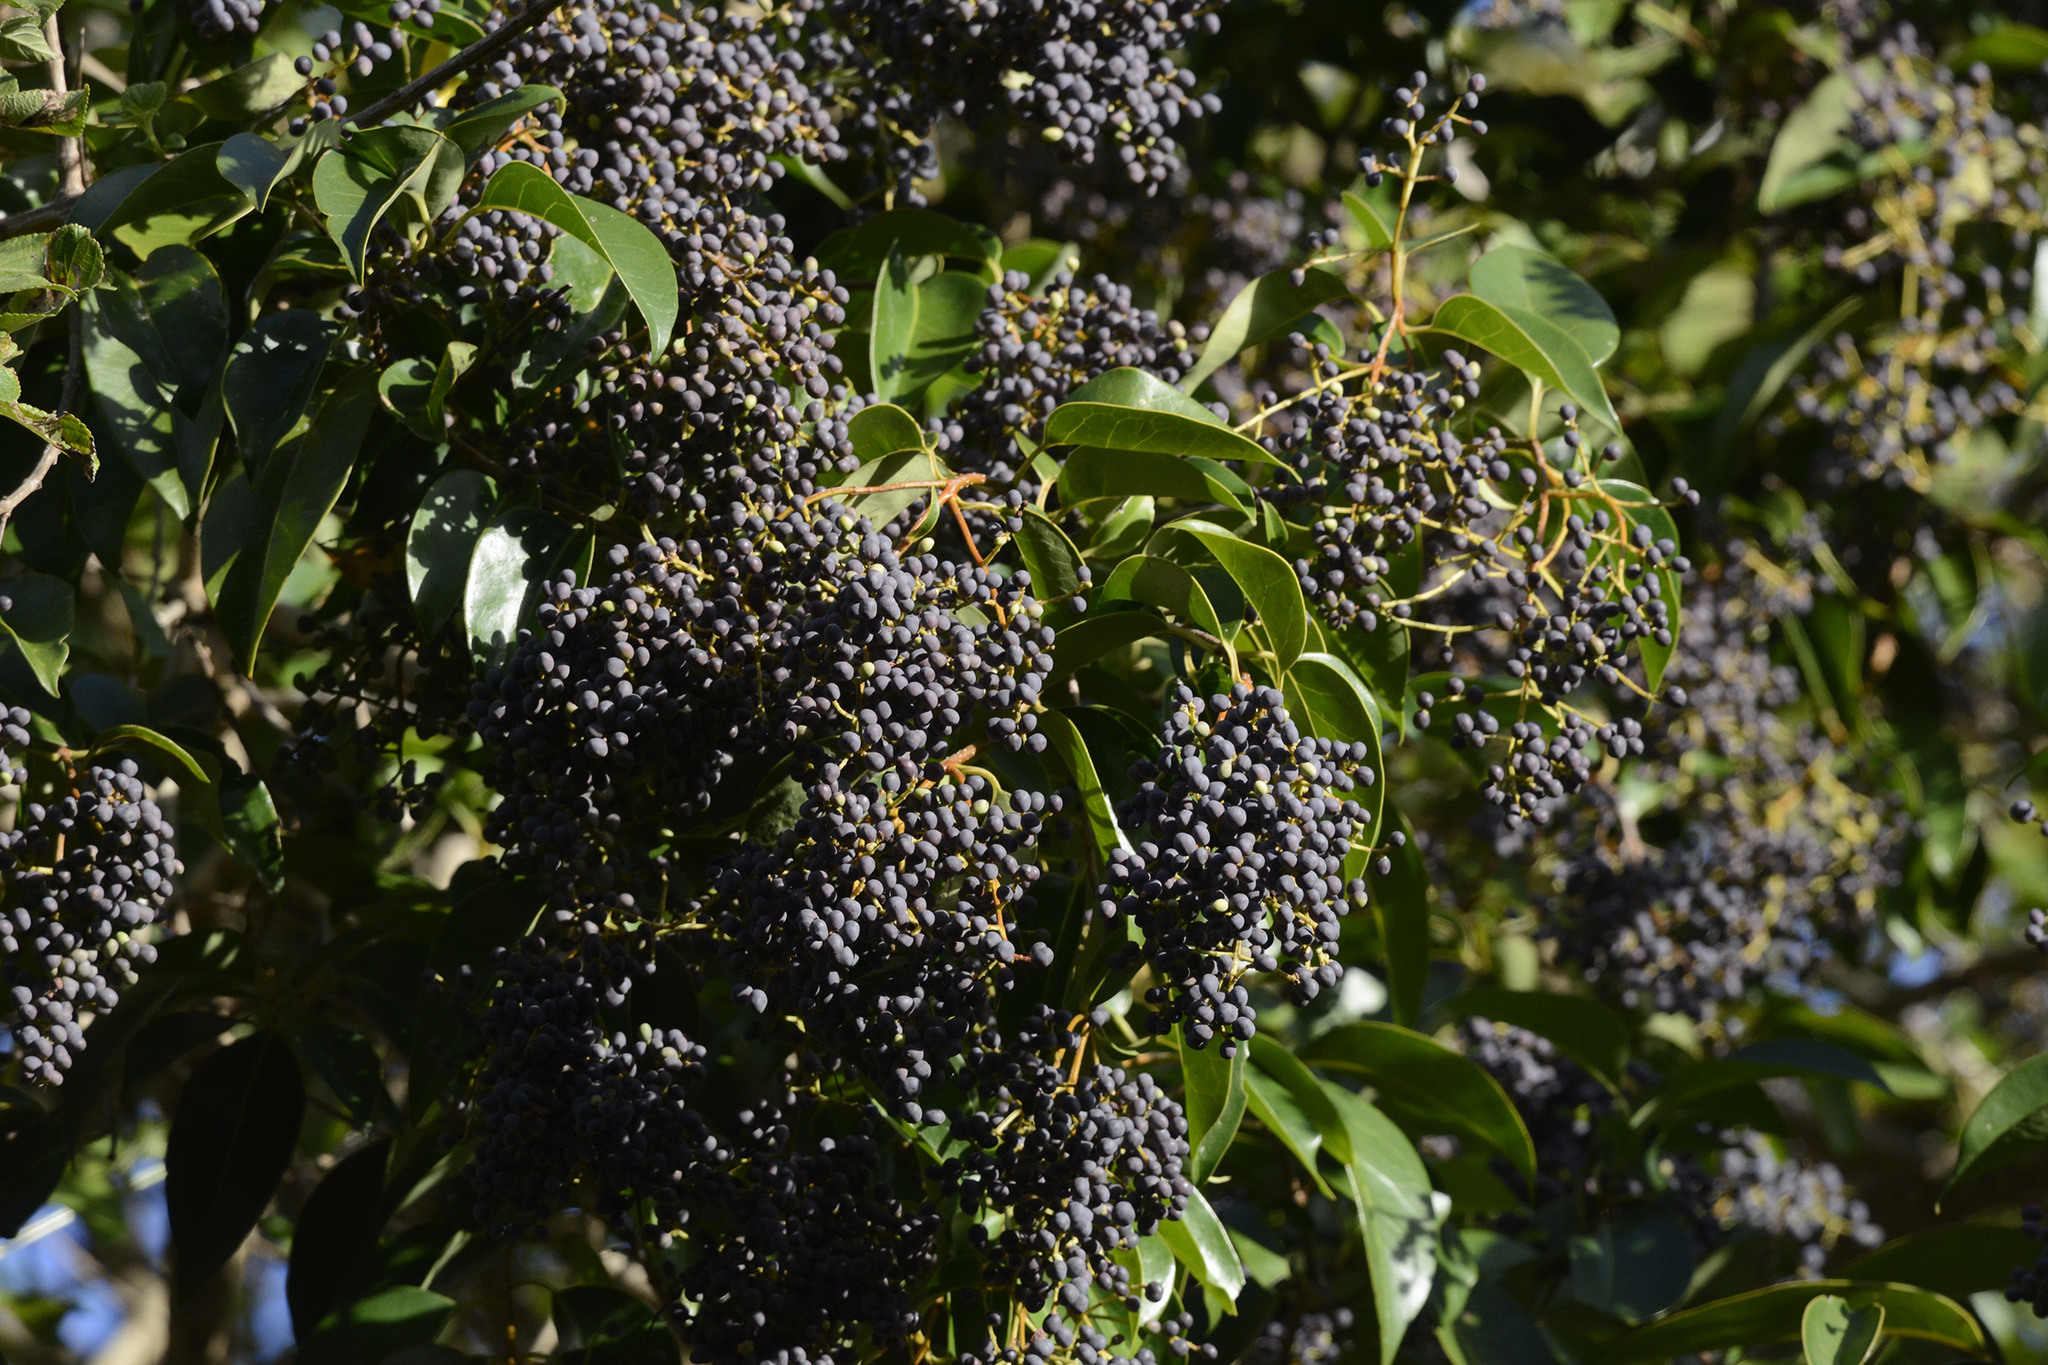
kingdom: Plantae
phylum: Tracheophyta
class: Magnoliopsida
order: Lamiales
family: Oleaceae
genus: Ligustrum
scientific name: Ligustrum lucidum
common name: Glossy privet
